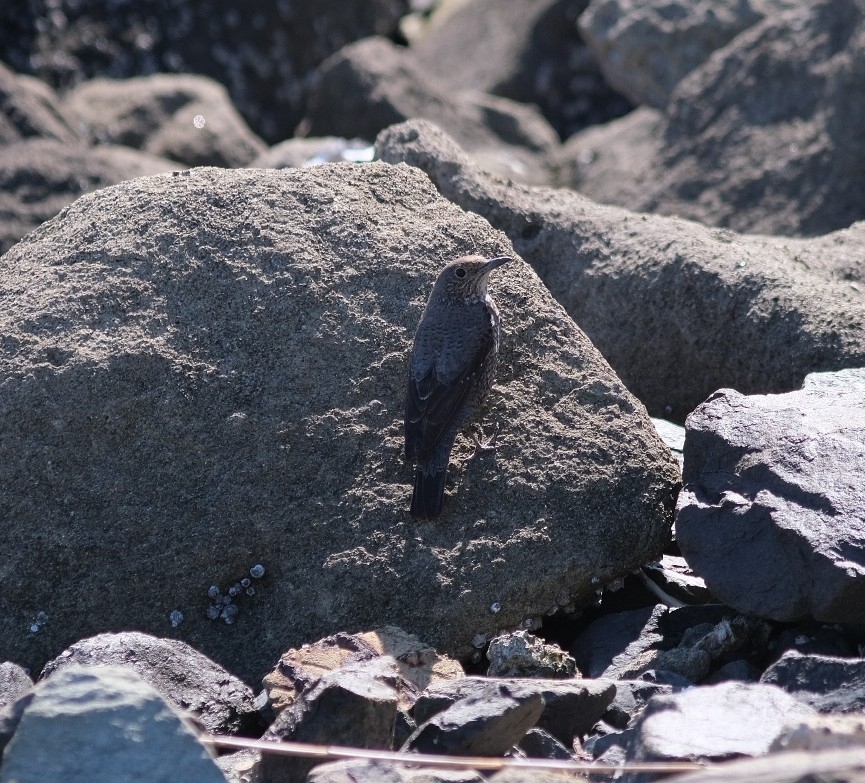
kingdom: Animalia
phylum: Chordata
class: Aves
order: Passeriformes
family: Muscicapidae
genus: Monticola
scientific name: Monticola solitarius
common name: Blue rock thrush
